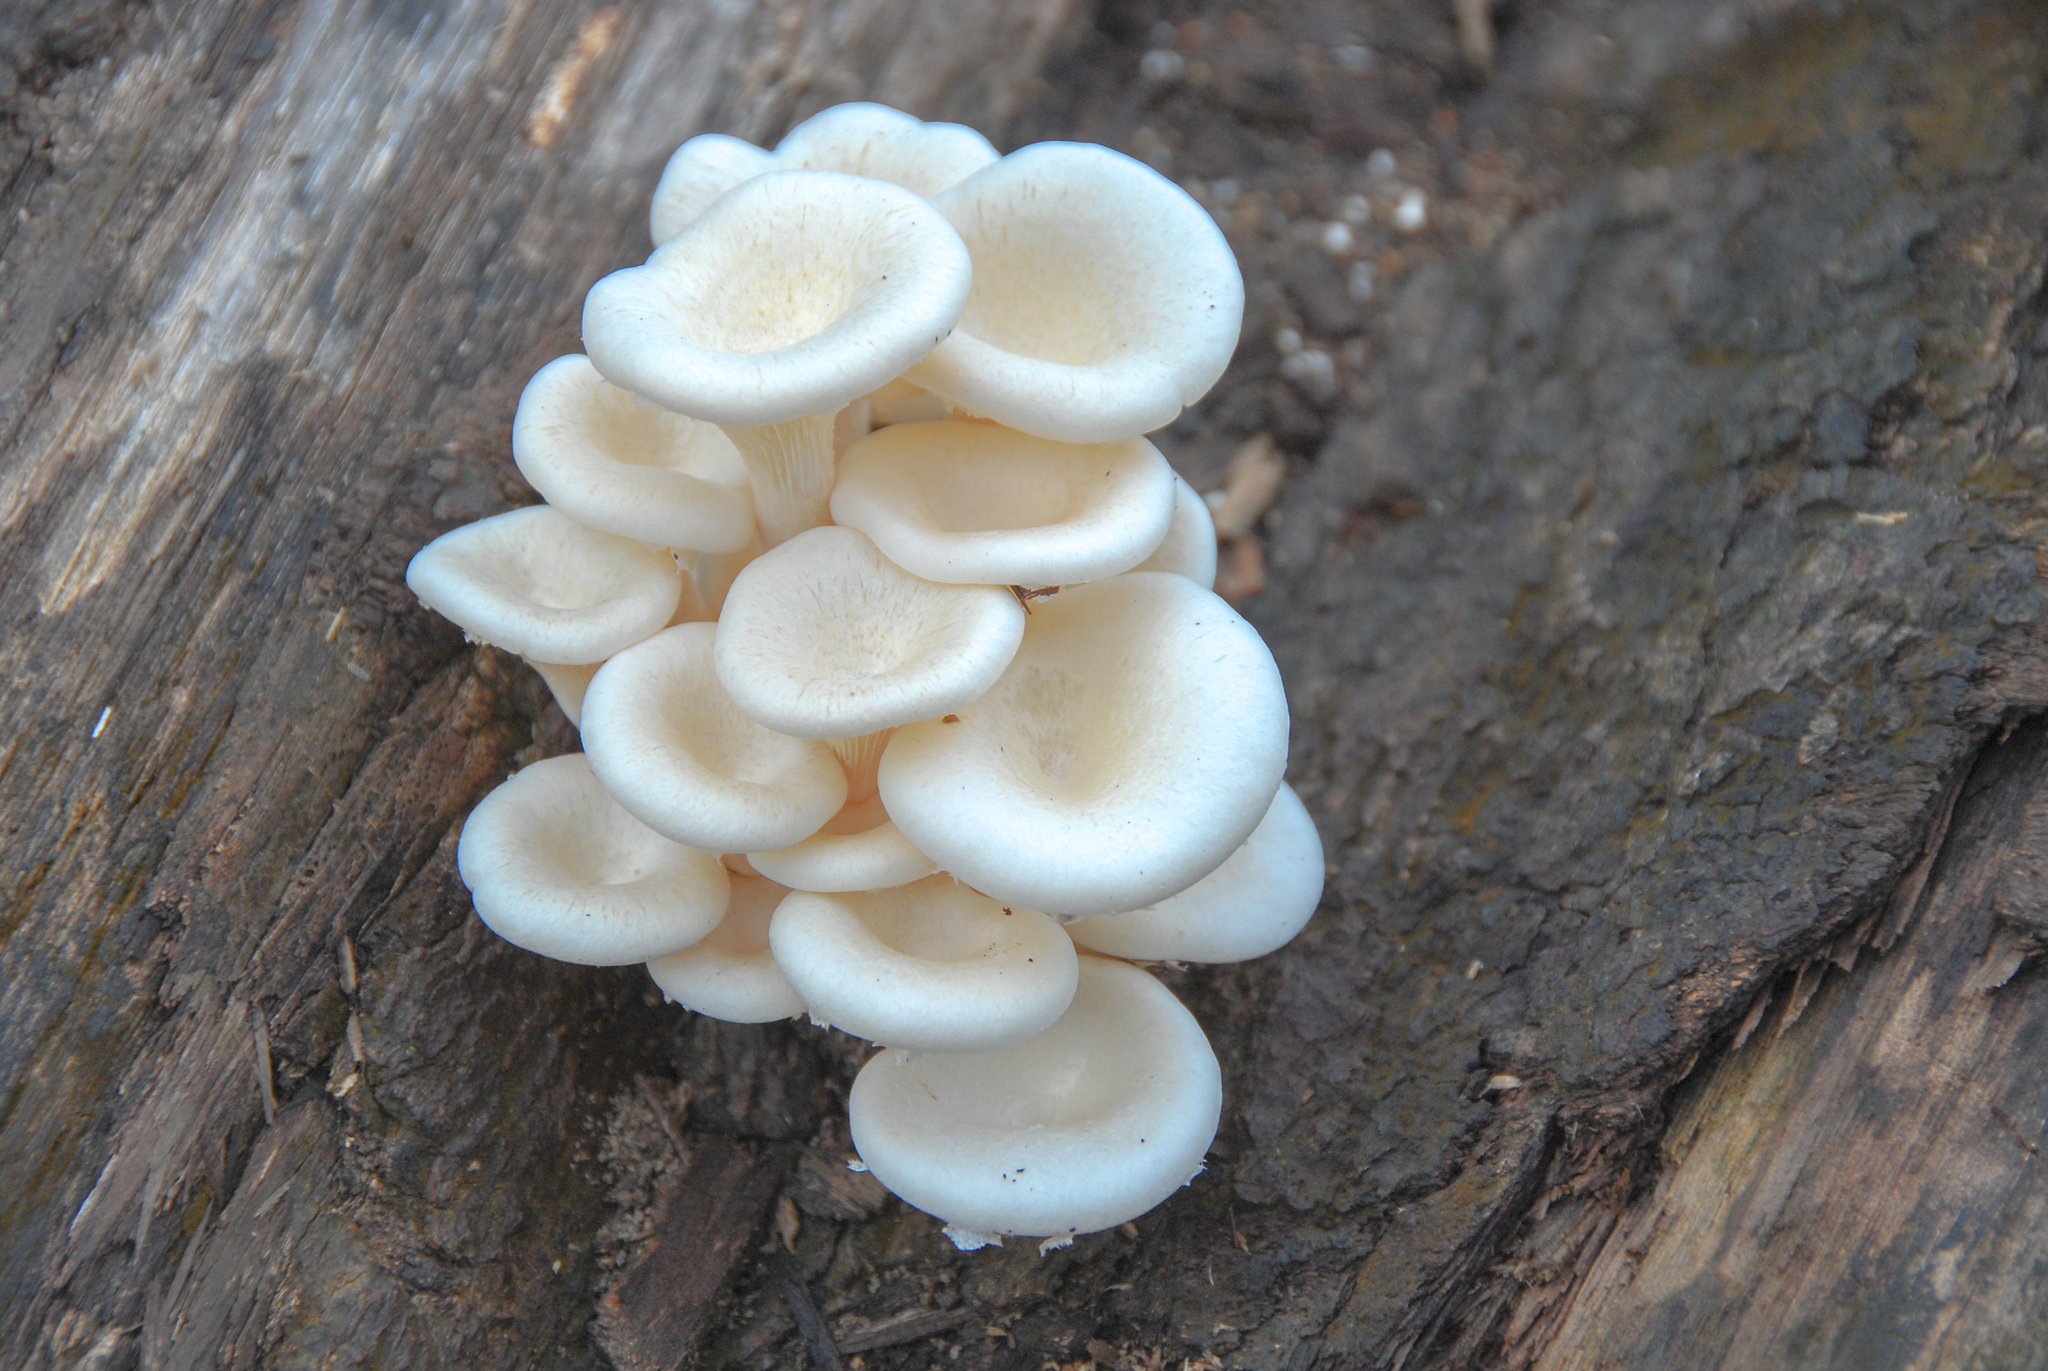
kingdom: Fungi
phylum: Basidiomycota
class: Agaricomycetes
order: Polyporales
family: Polyporaceae
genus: Lentinus
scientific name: Lentinus concavus
